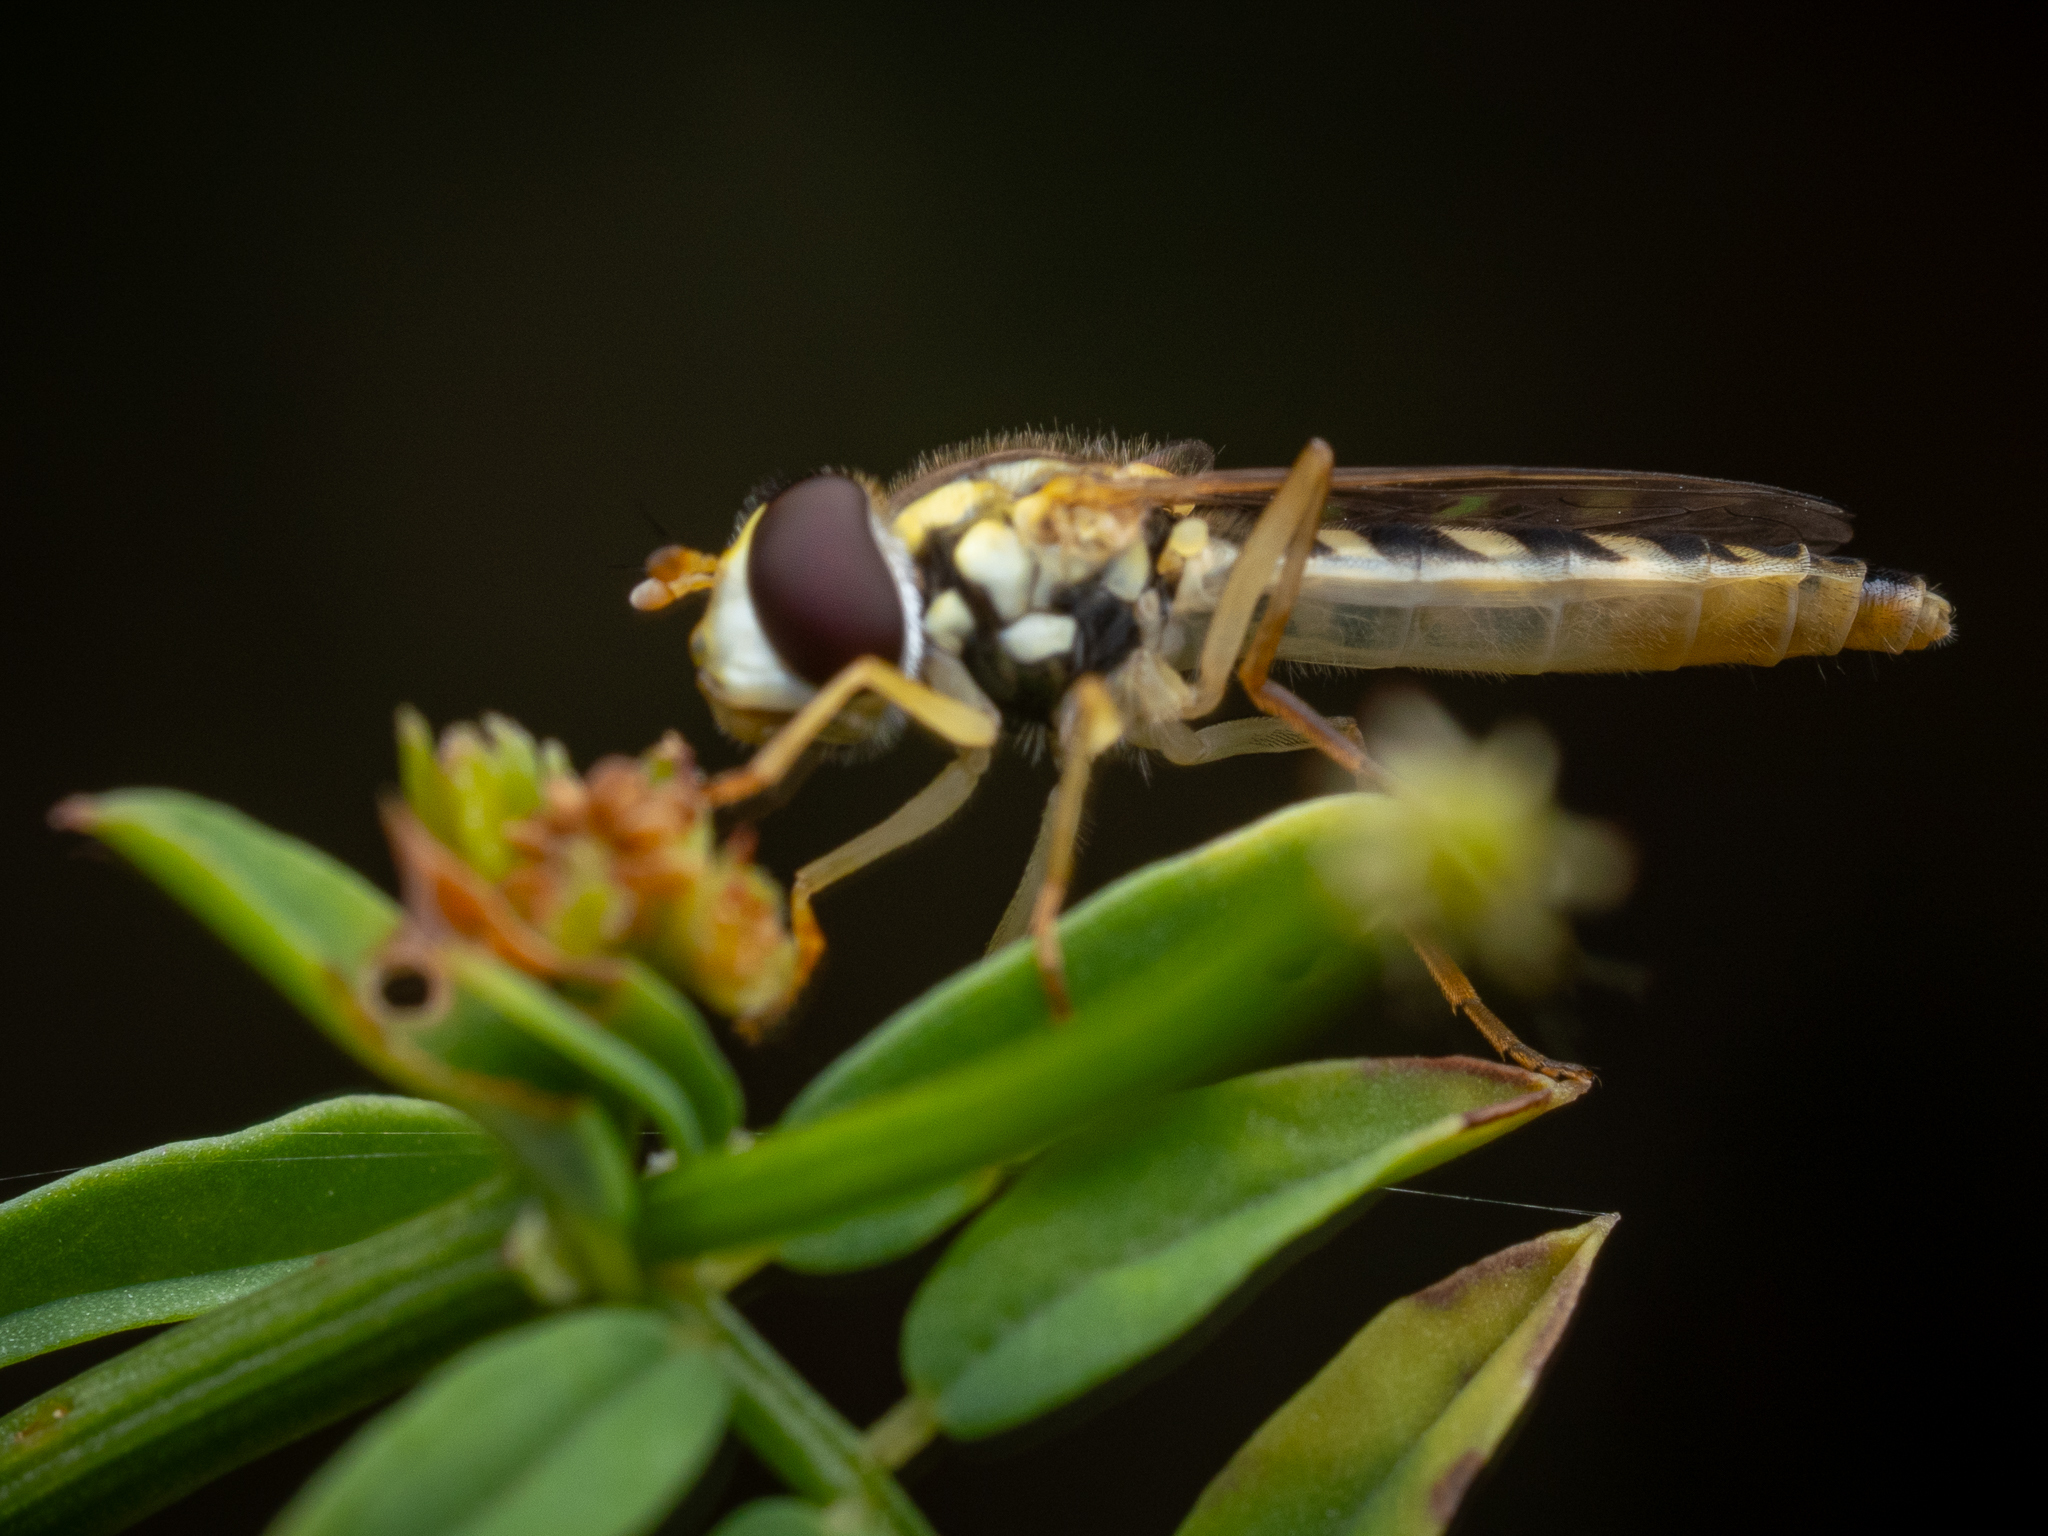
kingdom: Animalia
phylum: Arthropoda
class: Insecta
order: Diptera
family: Syrphidae
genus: Sphaerophoria
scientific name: Sphaerophoria scripta
